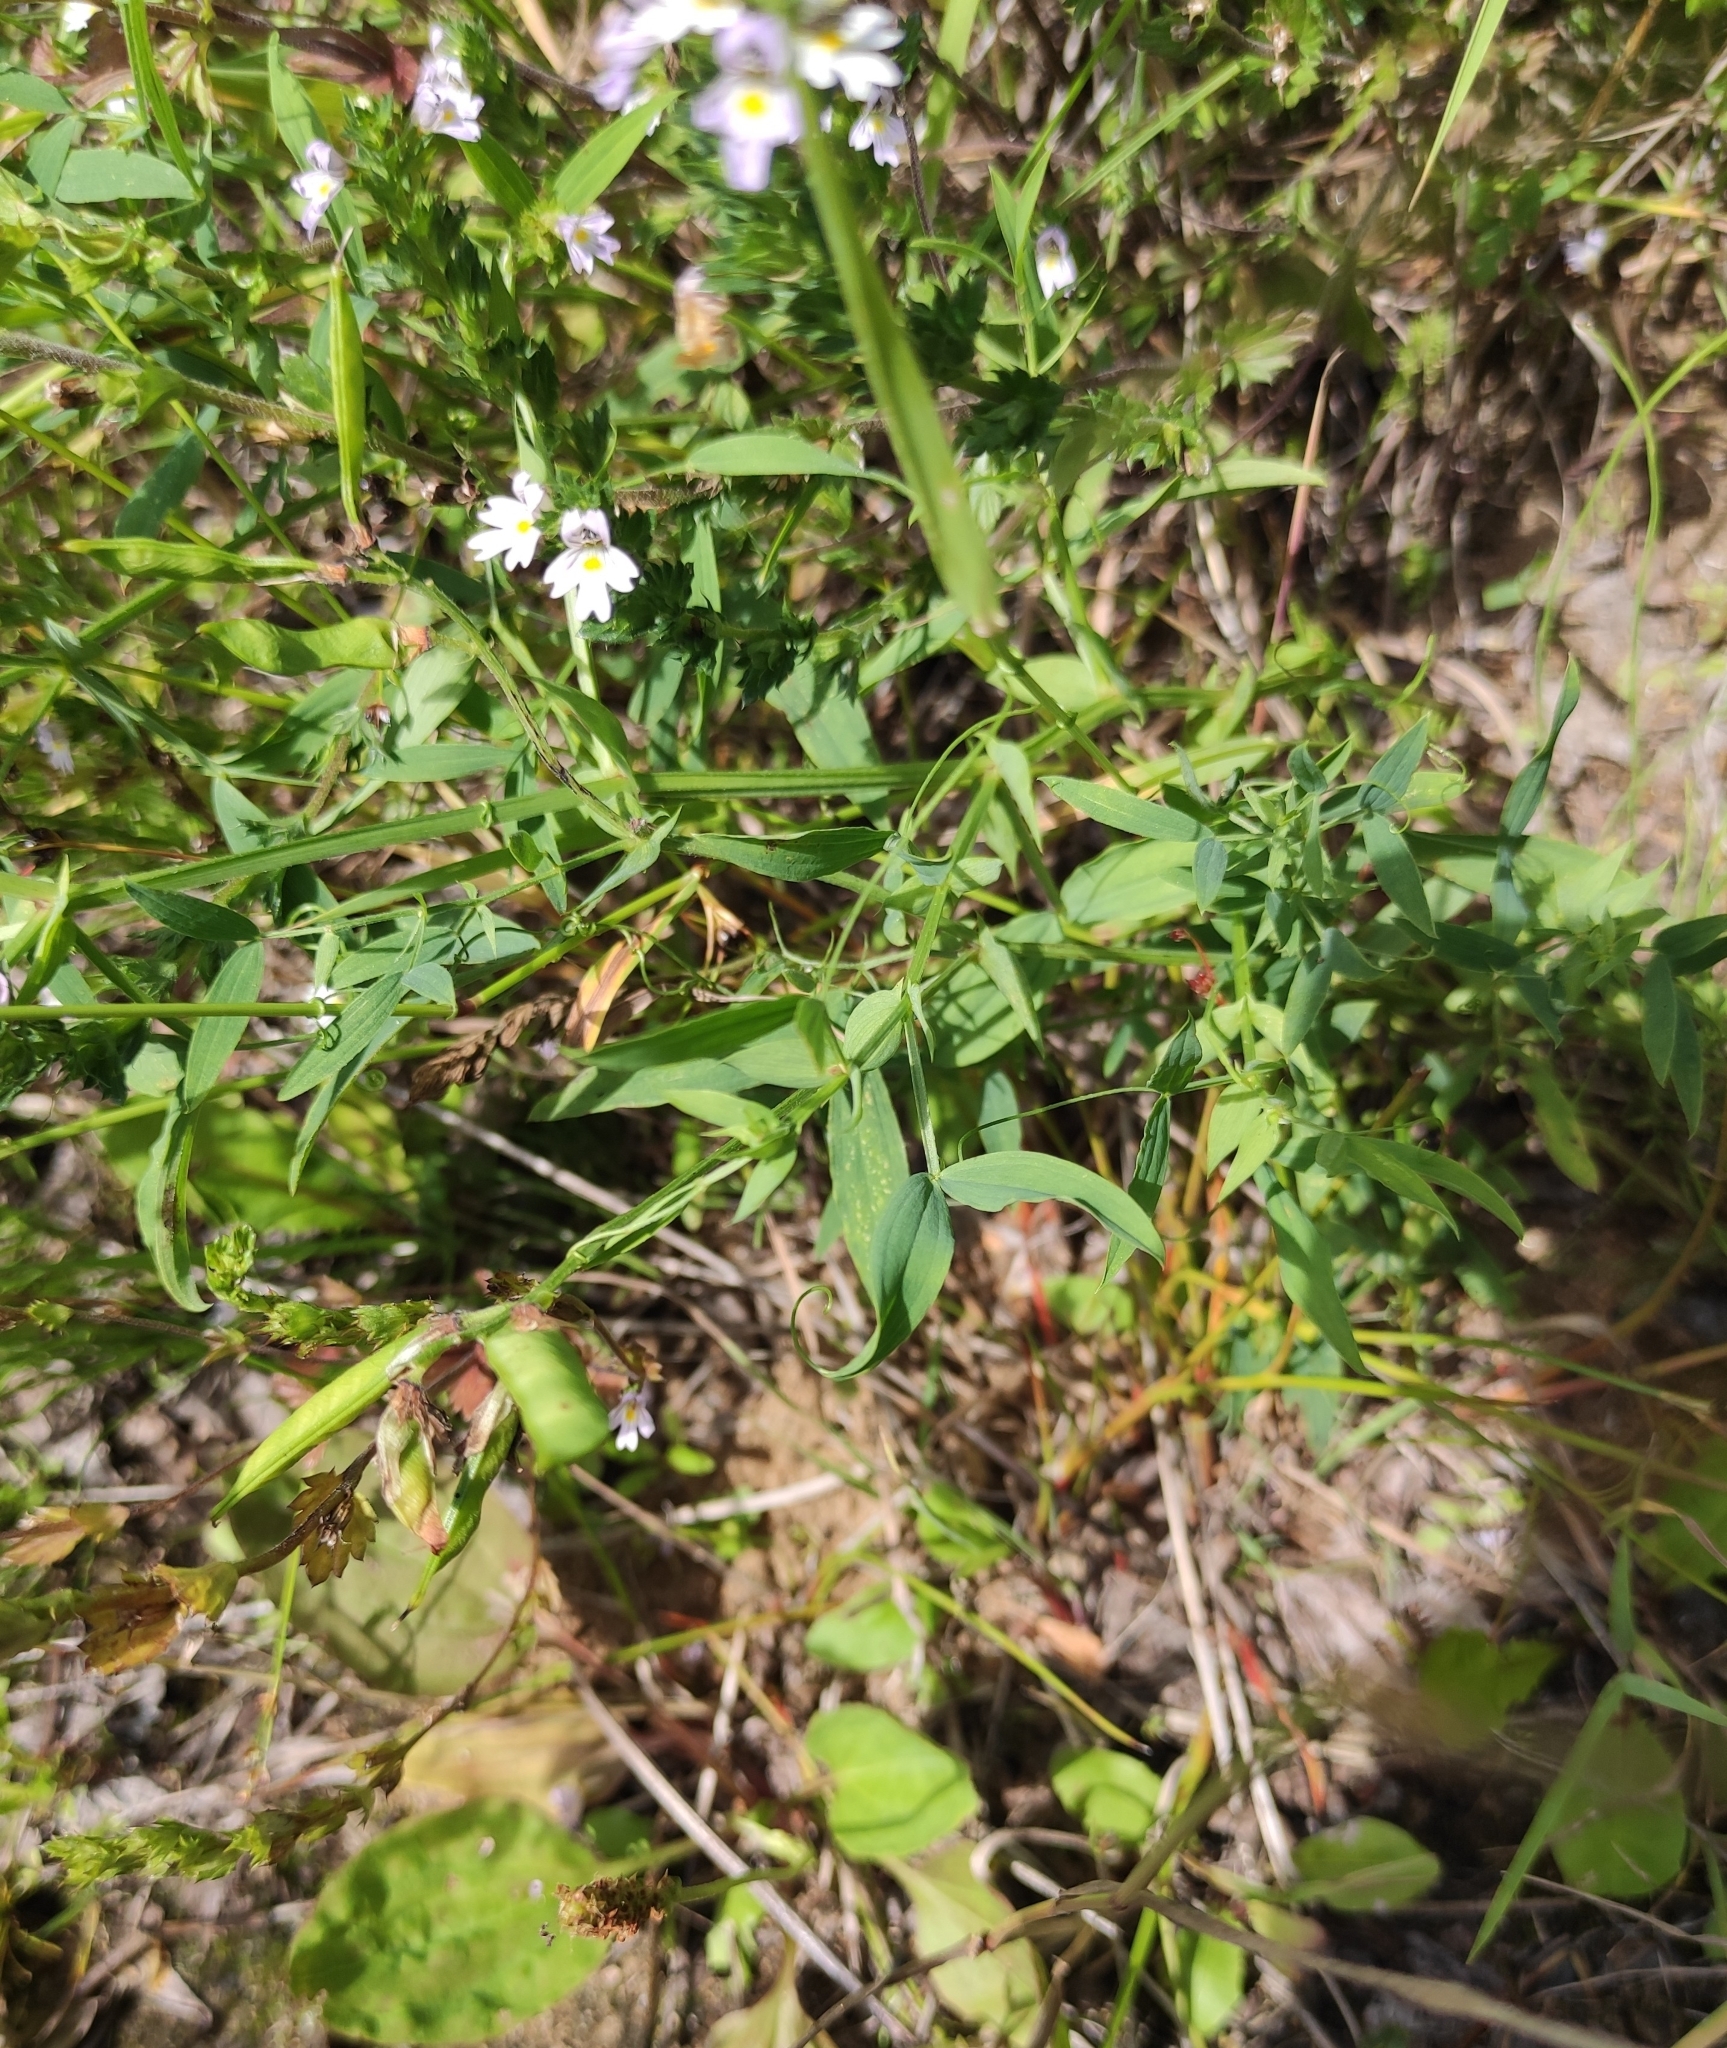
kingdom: Plantae
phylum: Tracheophyta
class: Magnoliopsida
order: Fabales
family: Fabaceae
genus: Lathyrus
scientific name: Lathyrus pratensis
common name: Meadow vetchling
